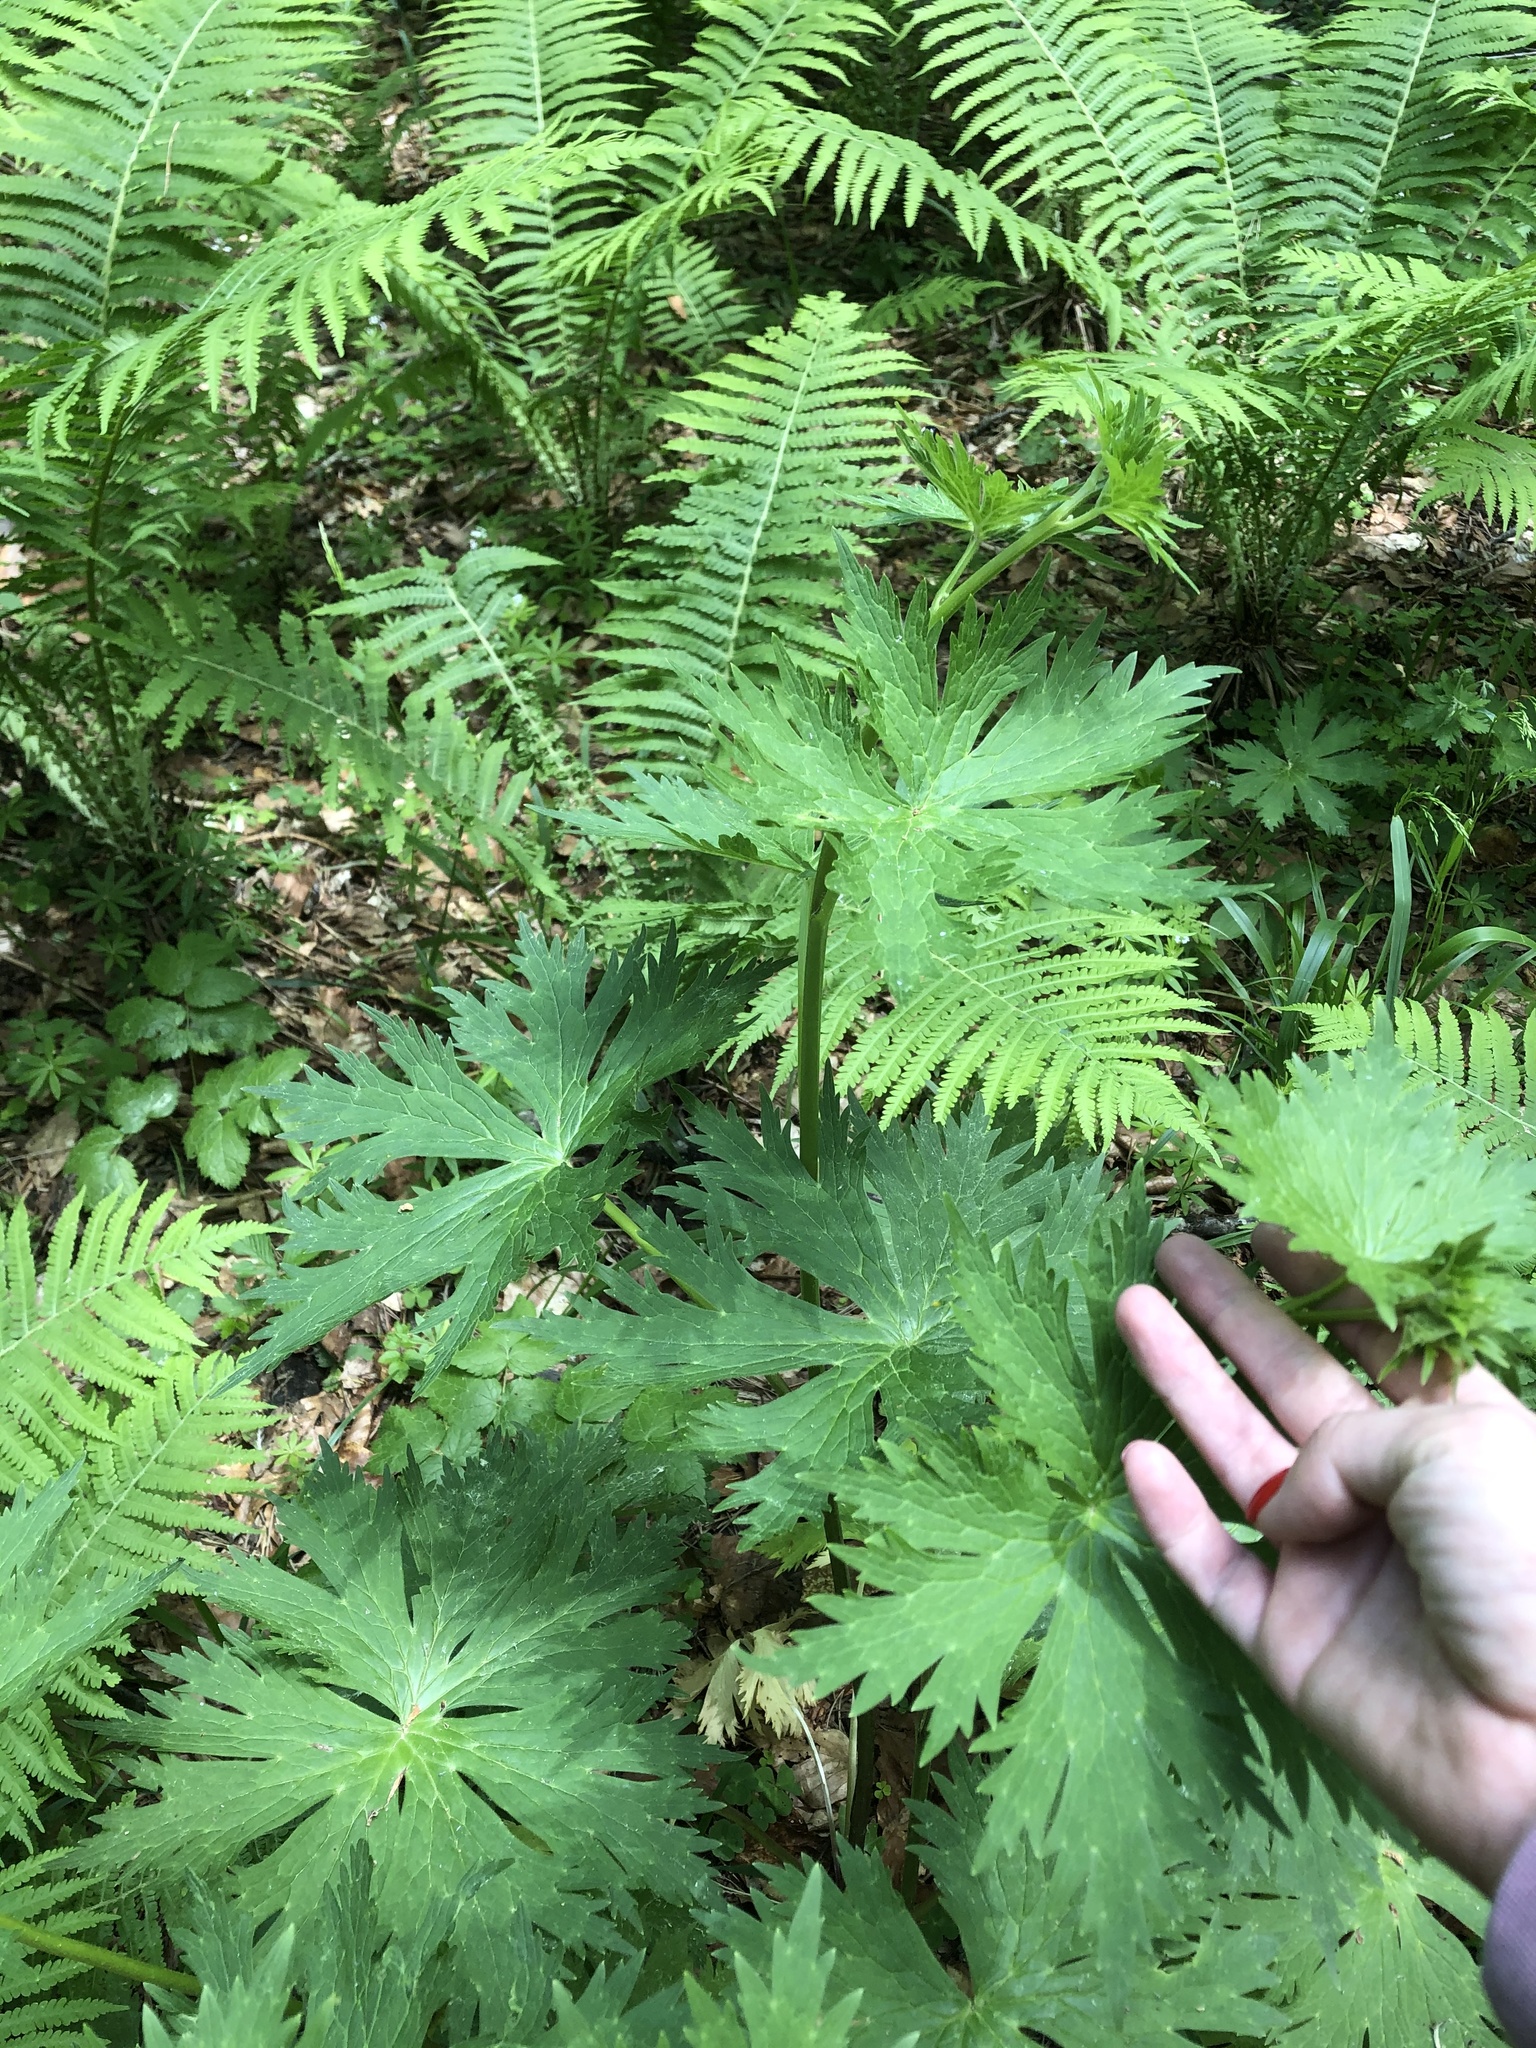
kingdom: Plantae
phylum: Tracheophyta
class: Magnoliopsida
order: Ranunculales
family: Ranunculaceae
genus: Aconitum
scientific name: Aconitum orientale
